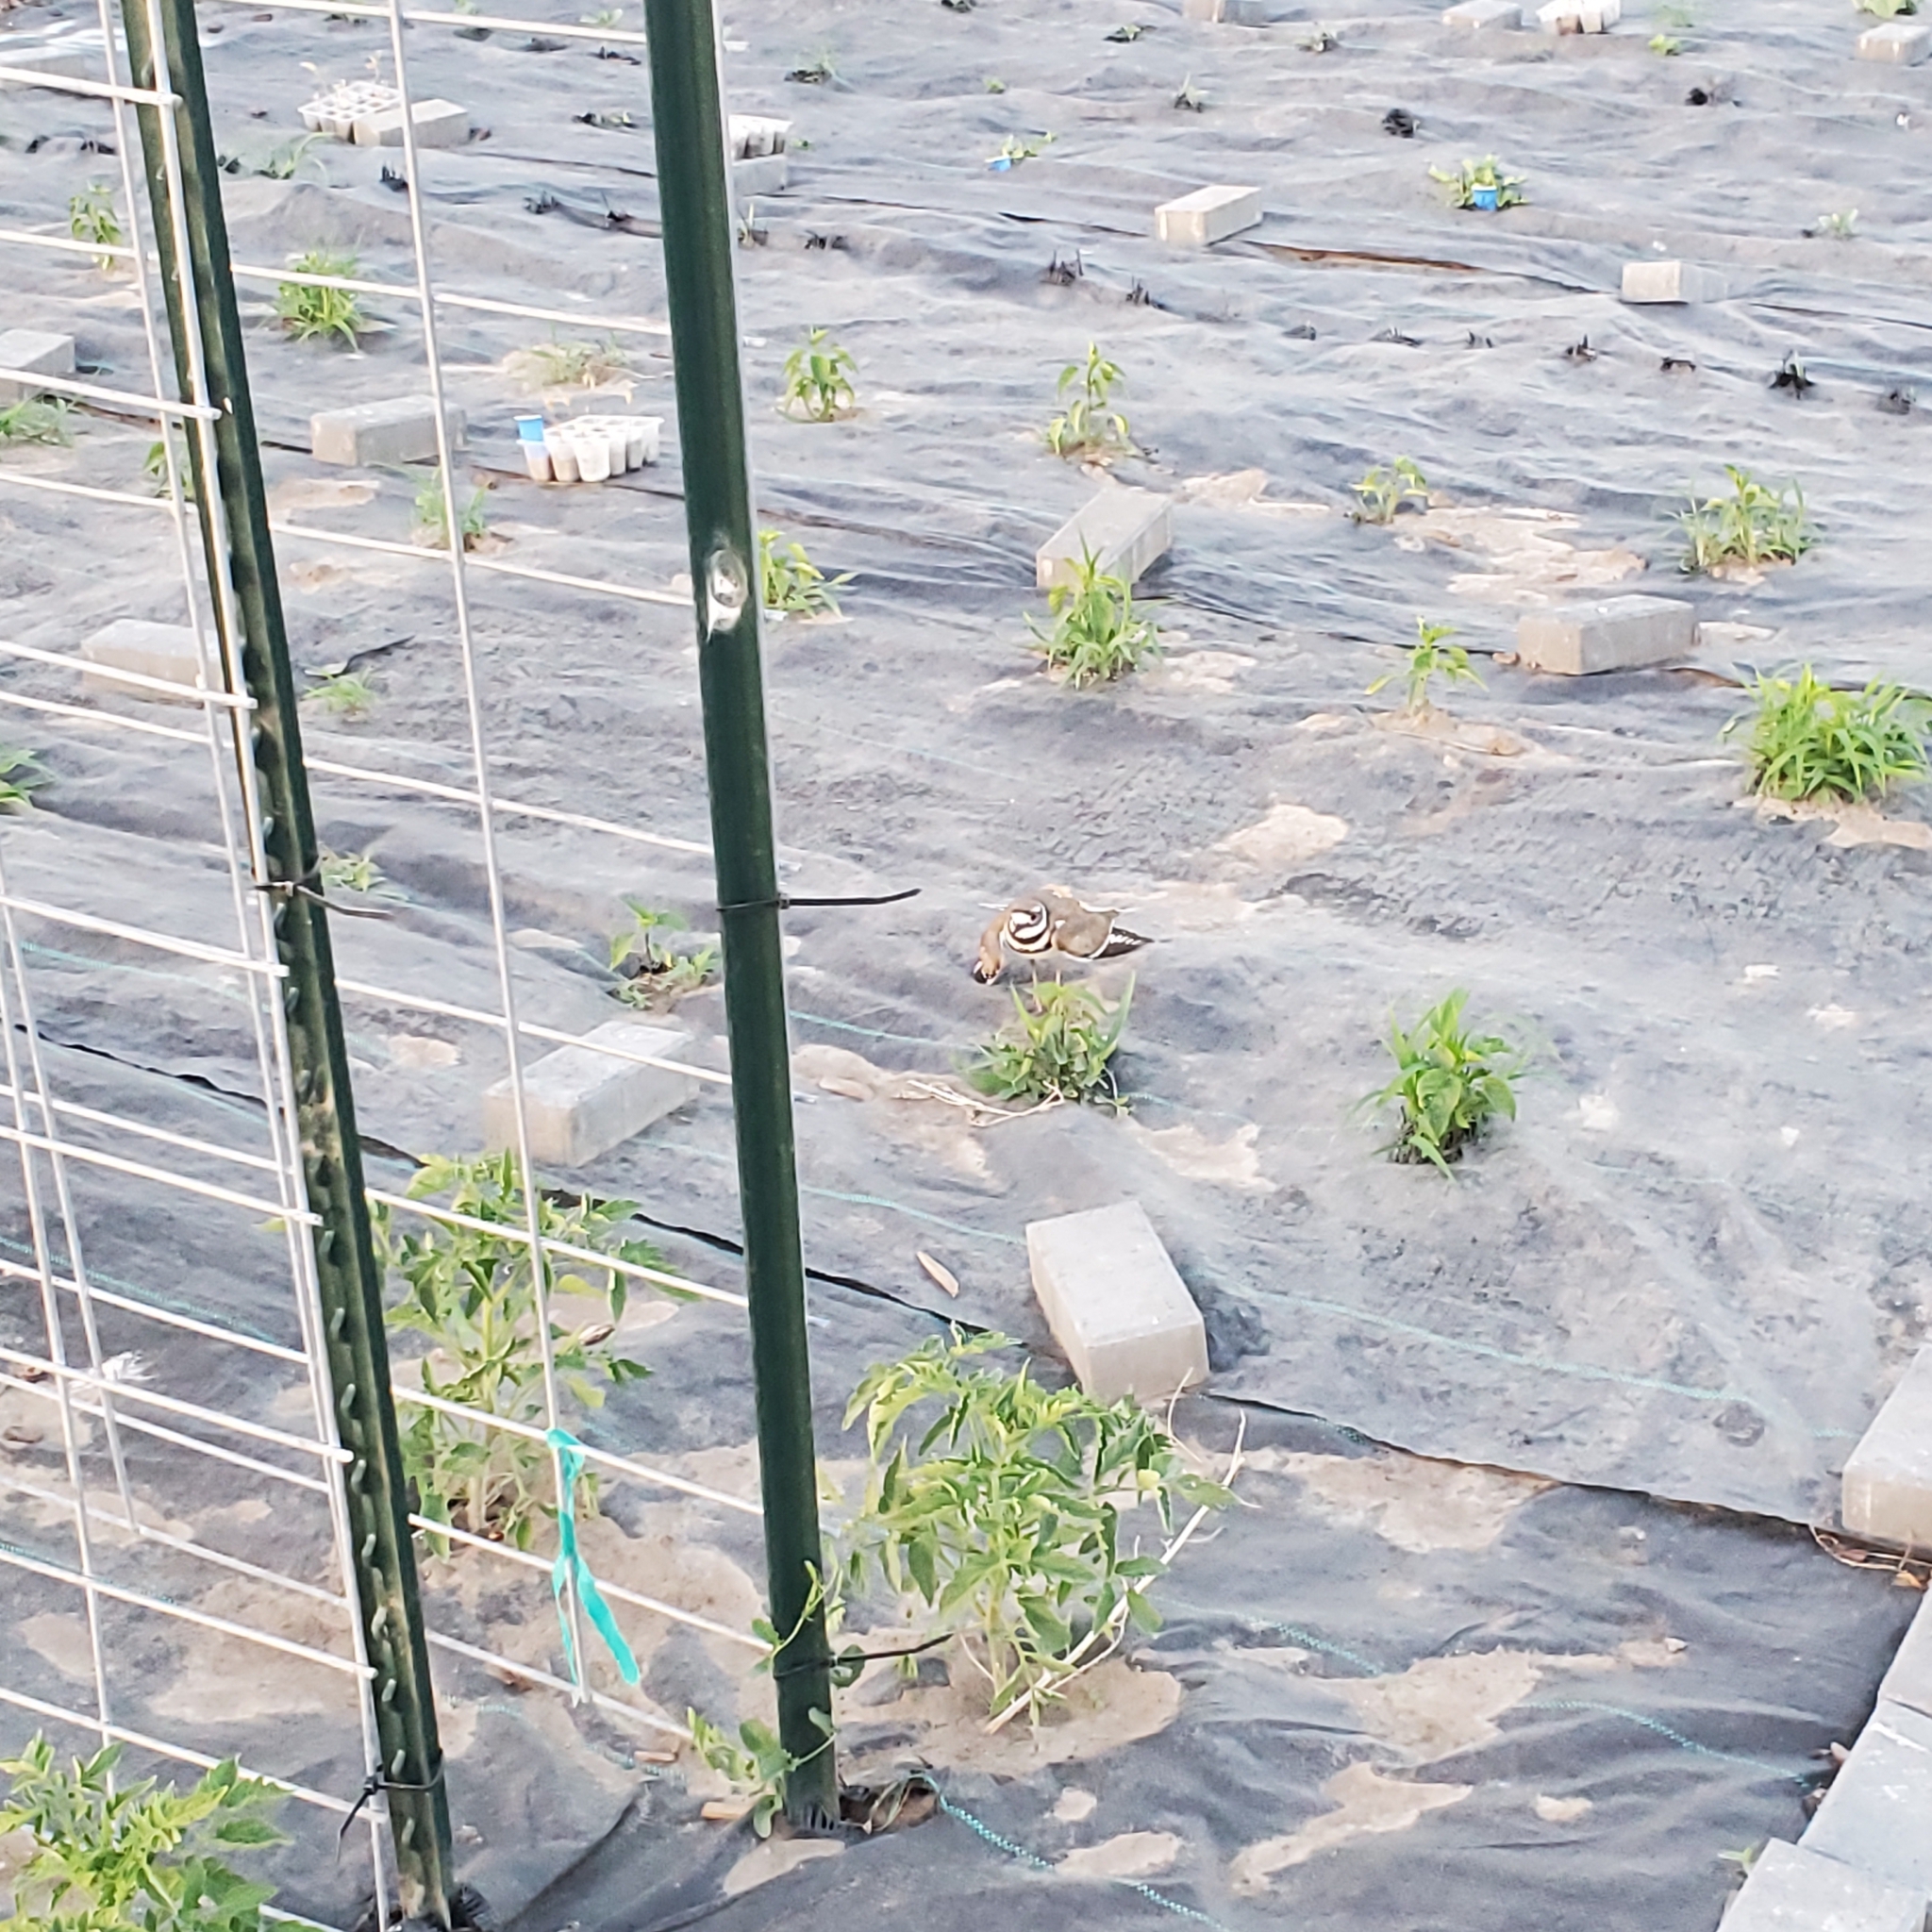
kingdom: Animalia
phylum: Chordata
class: Aves
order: Charadriiformes
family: Charadriidae
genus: Charadrius
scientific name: Charadrius vociferus
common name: Killdeer
